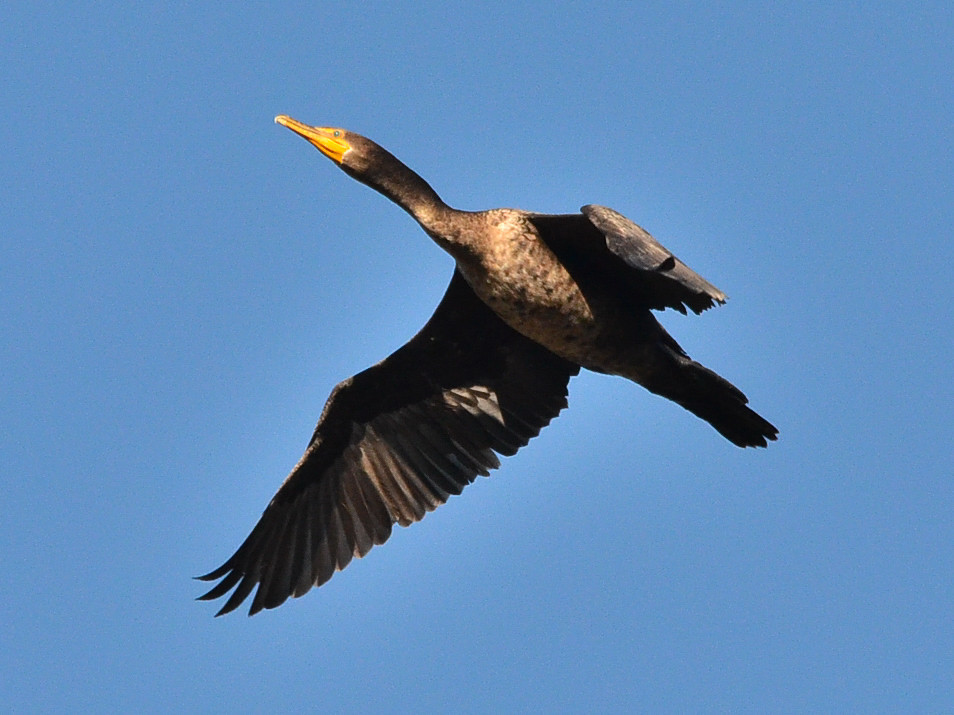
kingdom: Animalia
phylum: Chordata
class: Aves
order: Suliformes
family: Phalacrocoracidae
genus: Phalacrocorax
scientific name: Phalacrocorax auritus
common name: Double-crested cormorant
